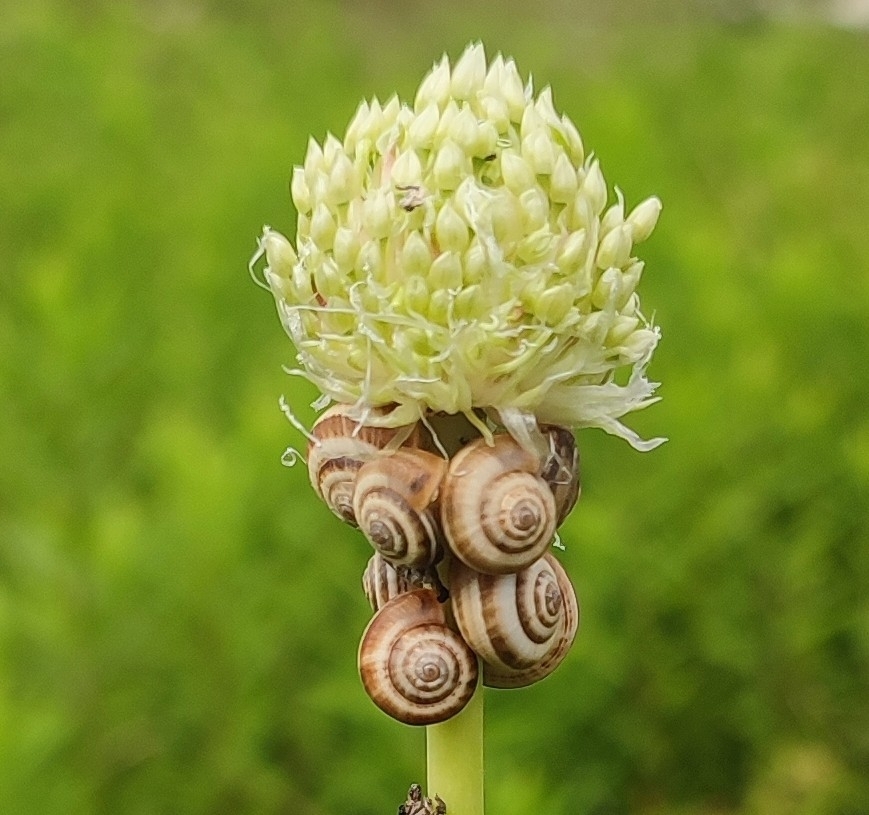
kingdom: Animalia
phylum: Mollusca
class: Gastropoda
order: Stylommatophora
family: Geomitridae
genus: Xeropicta
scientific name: Xeropicta derbentina
